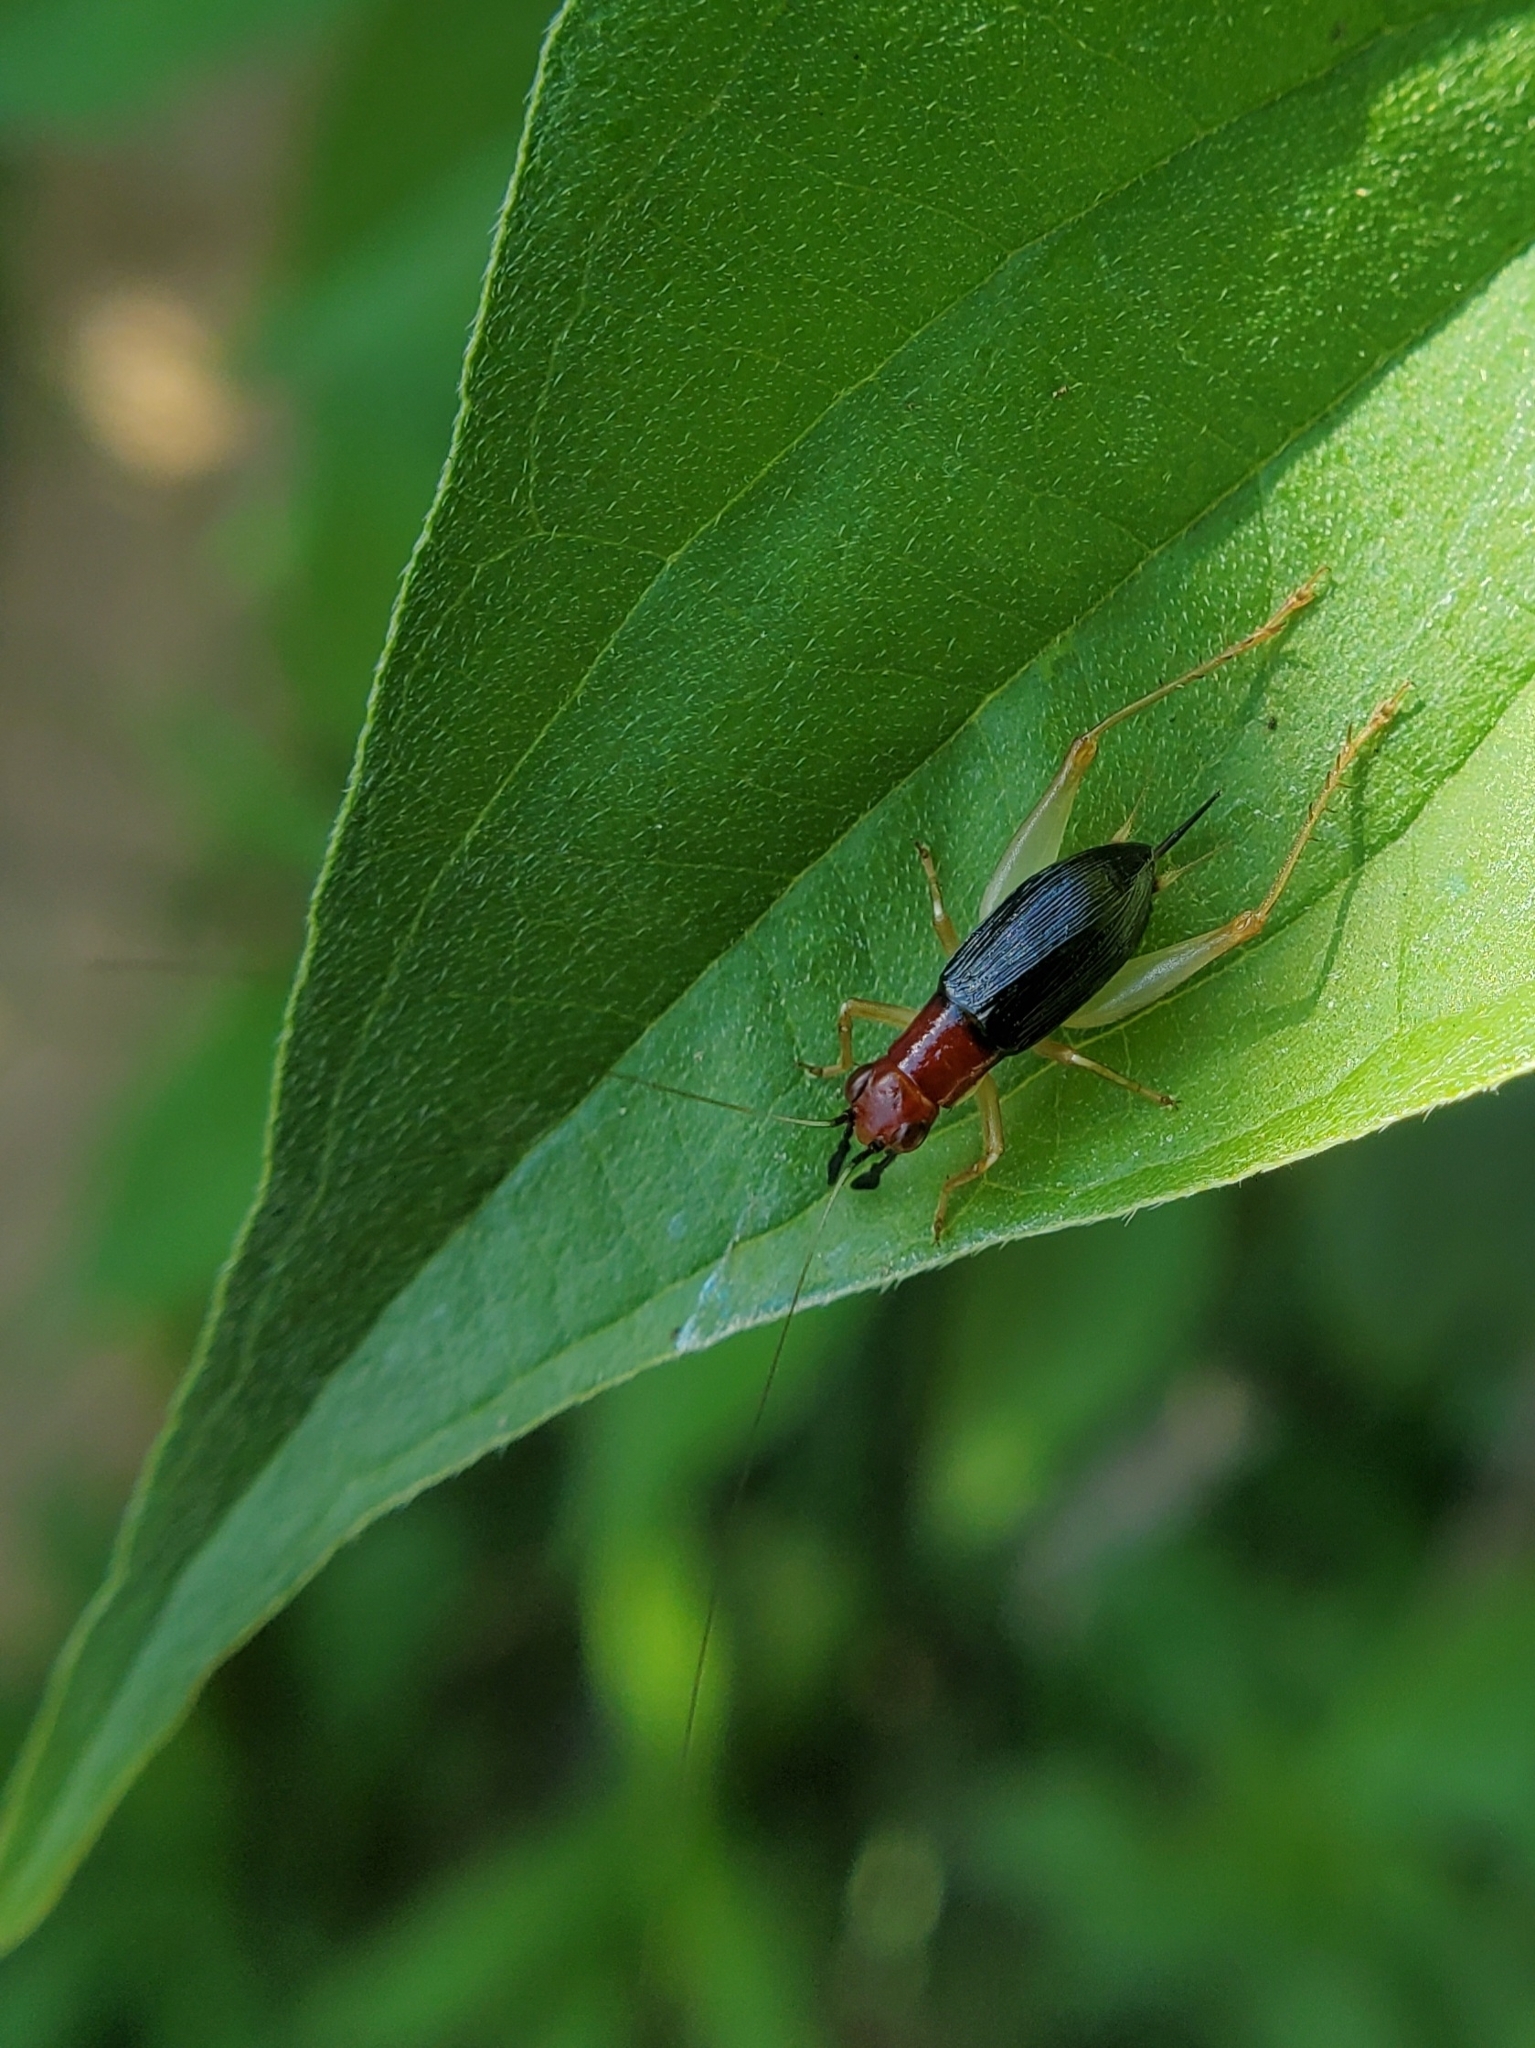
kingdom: Animalia
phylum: Arthropoda
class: Insecta
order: Orthoptera
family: Trigonidiidae
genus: Phyllopalpus
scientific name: Phyllopalpus pulchellus
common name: Handsome trig
